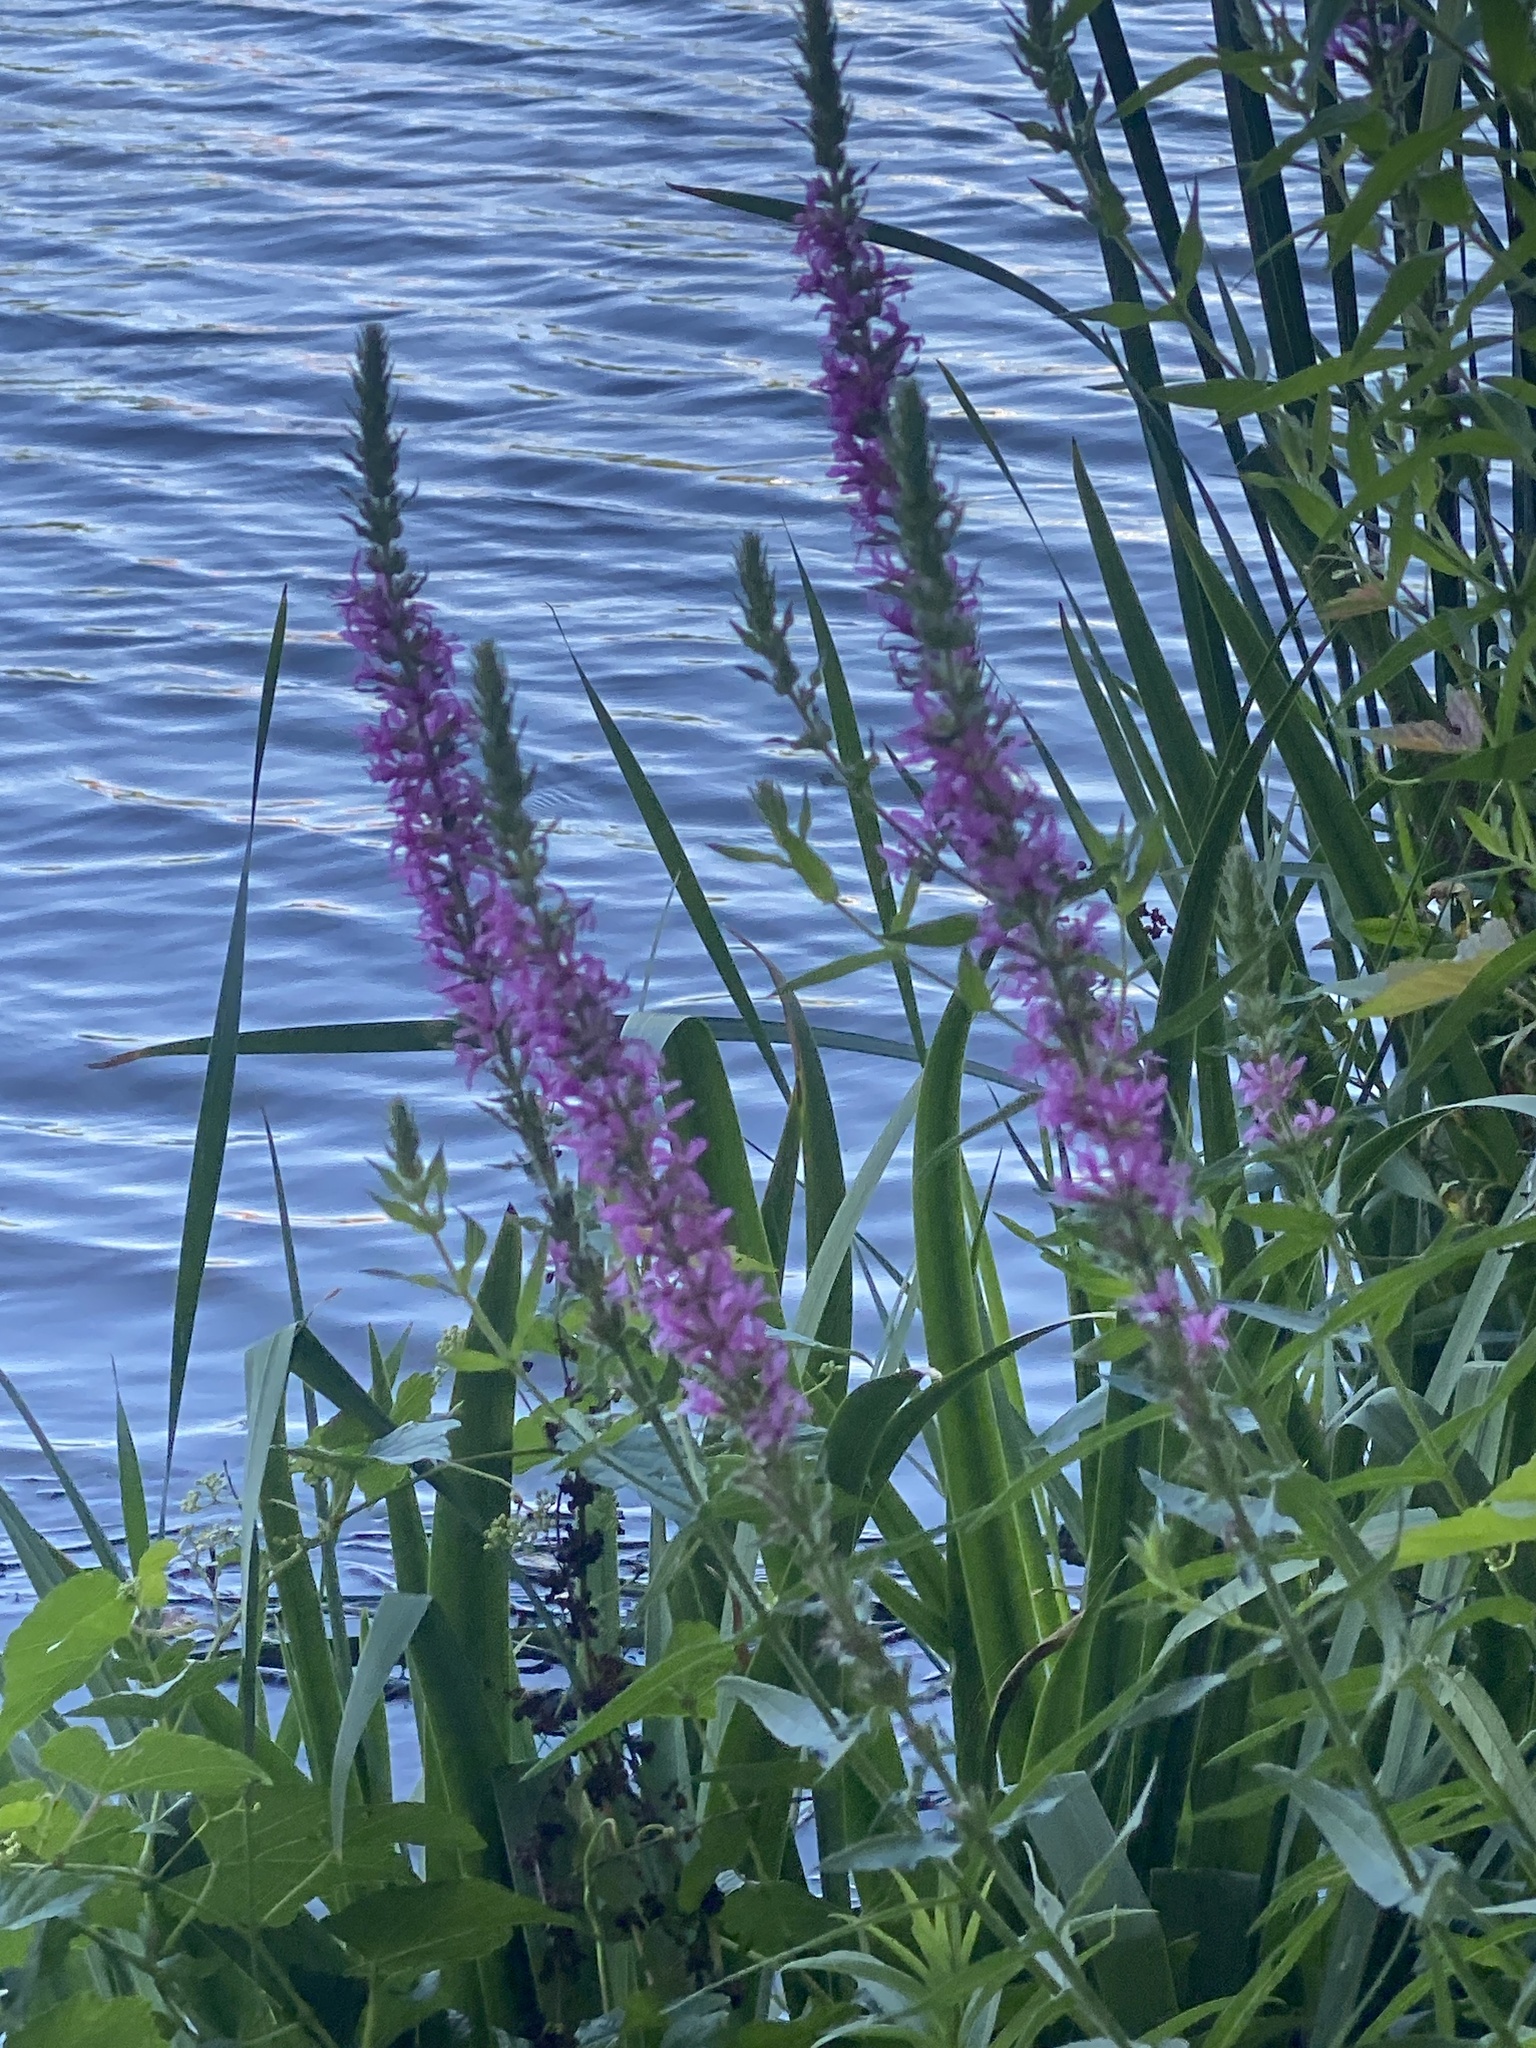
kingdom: Plantae
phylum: Tracheophyta
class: Magnoliopsida
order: Myrtales
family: Lythraceae
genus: Lythrum
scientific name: Lythrum salicaria
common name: Purple loosestrife
